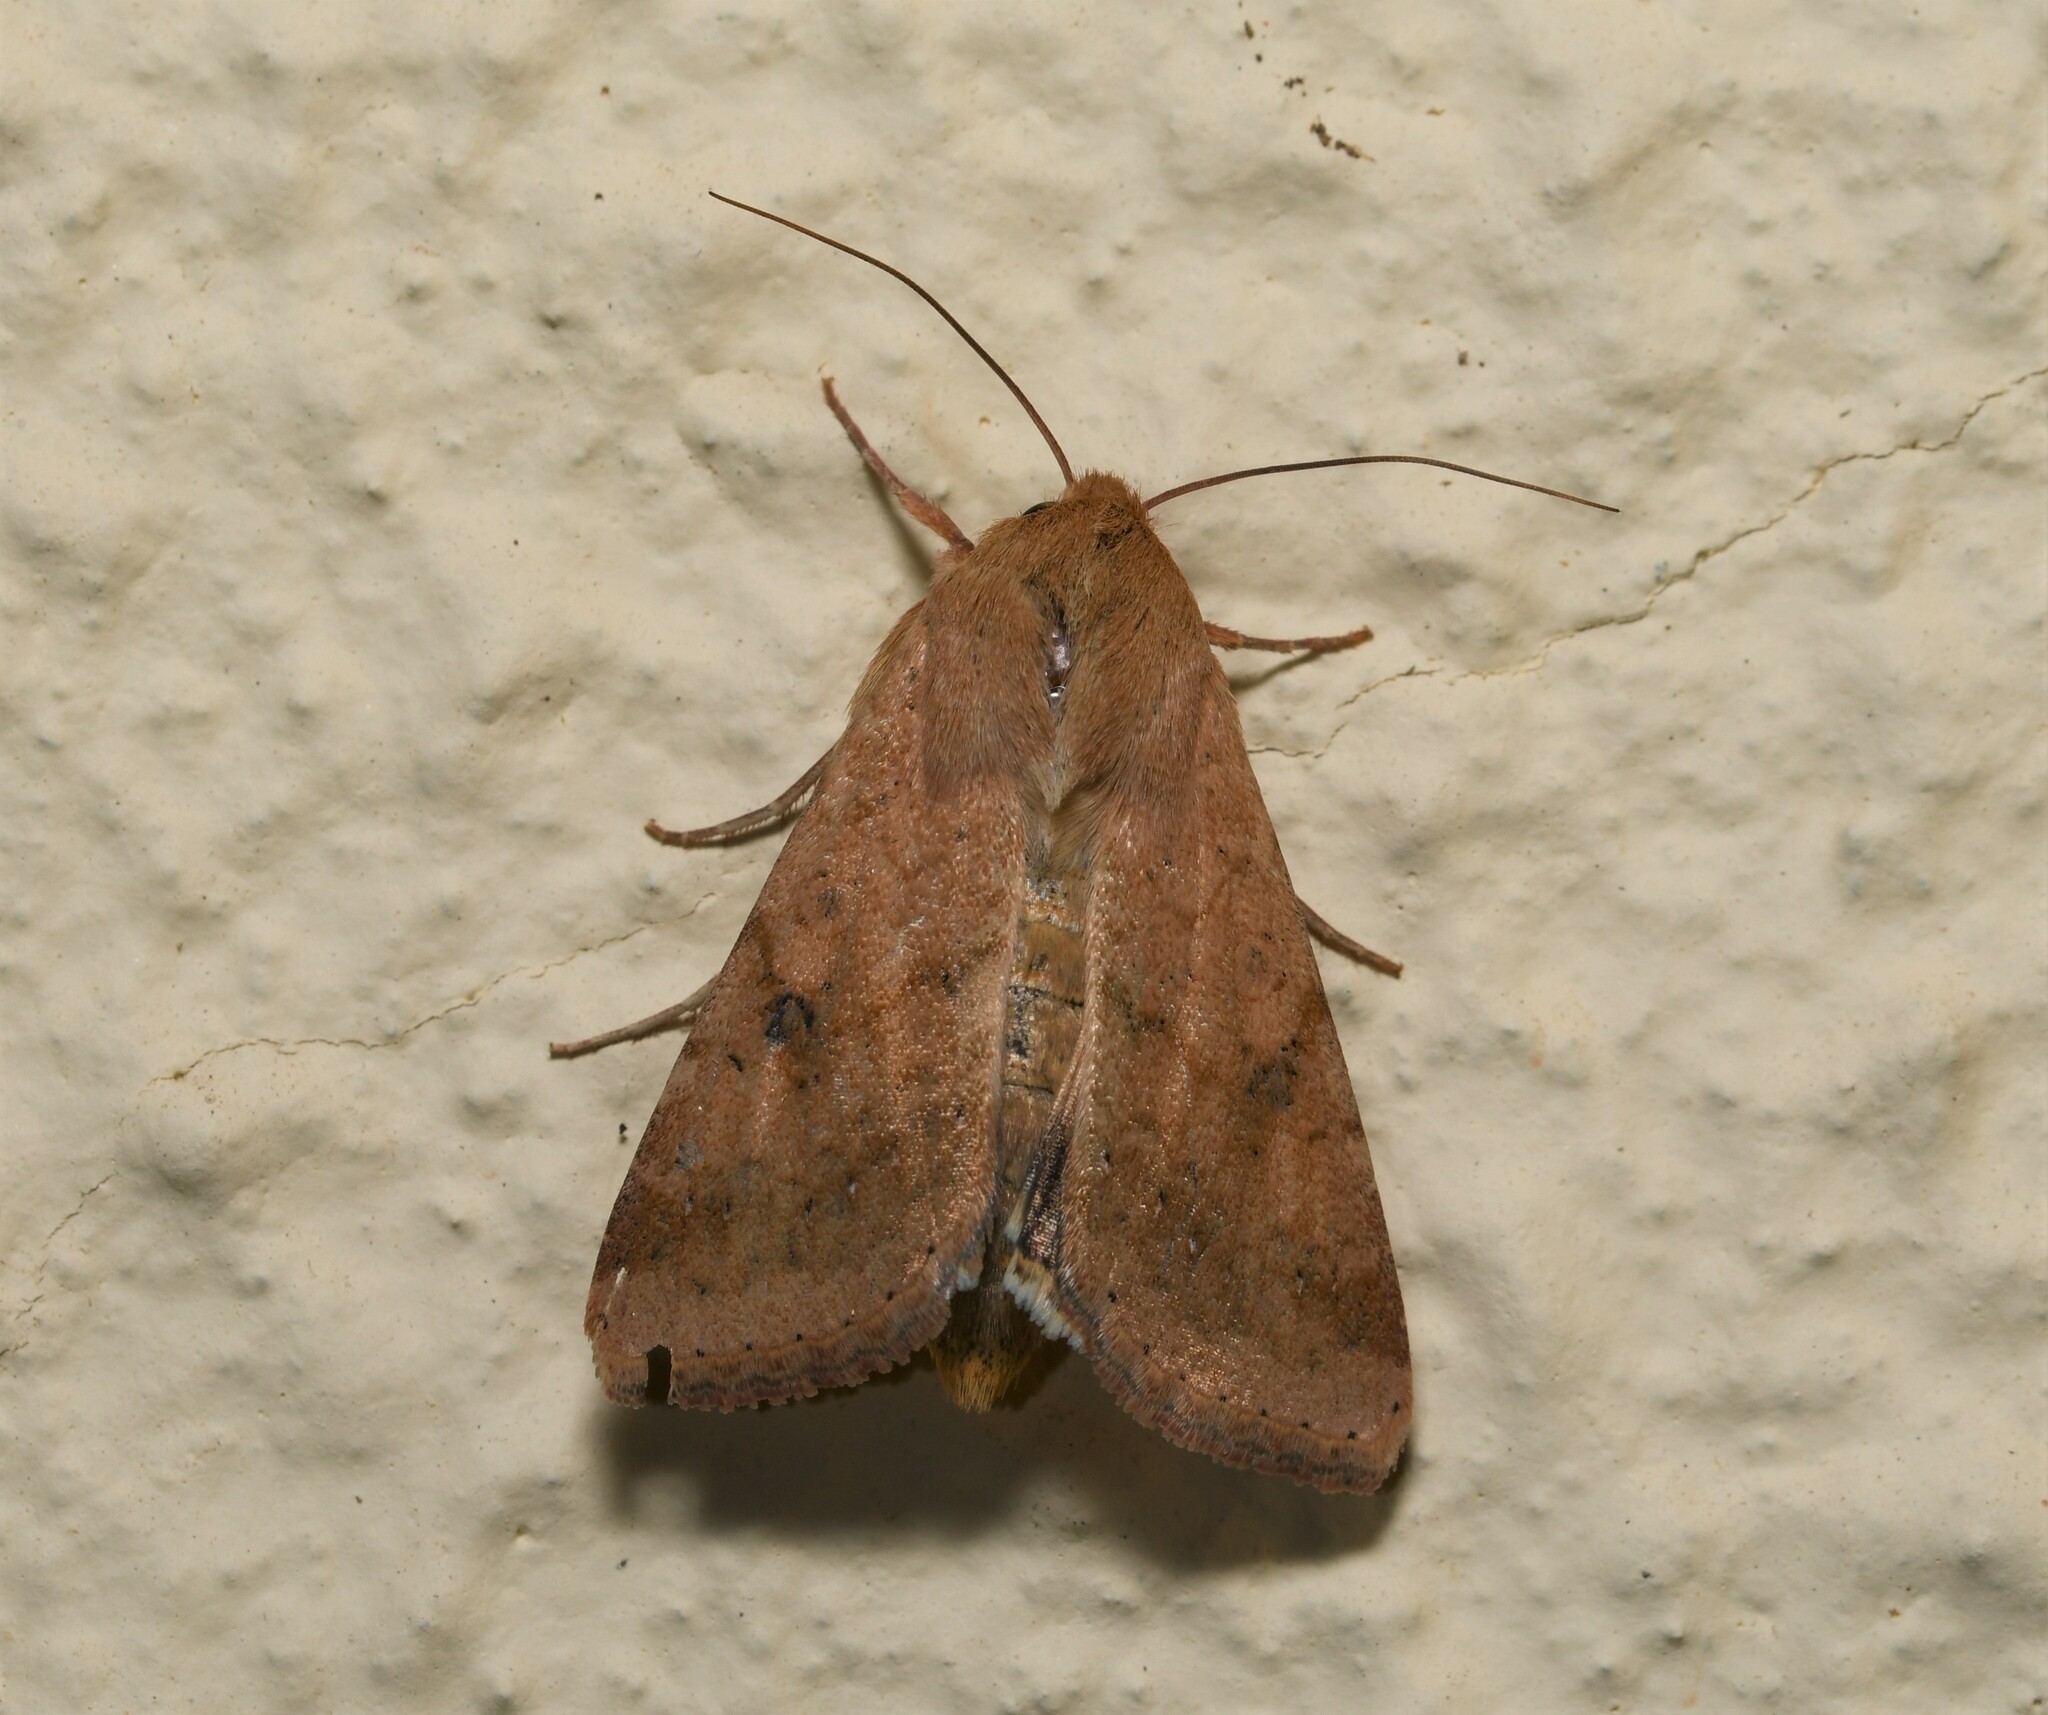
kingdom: Animalia
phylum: Arthropoda
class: Insecta
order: Lepidoptera
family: Noctuidae
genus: Helicoverpa
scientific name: Helicoverpa armigera
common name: Cotton bollworm
